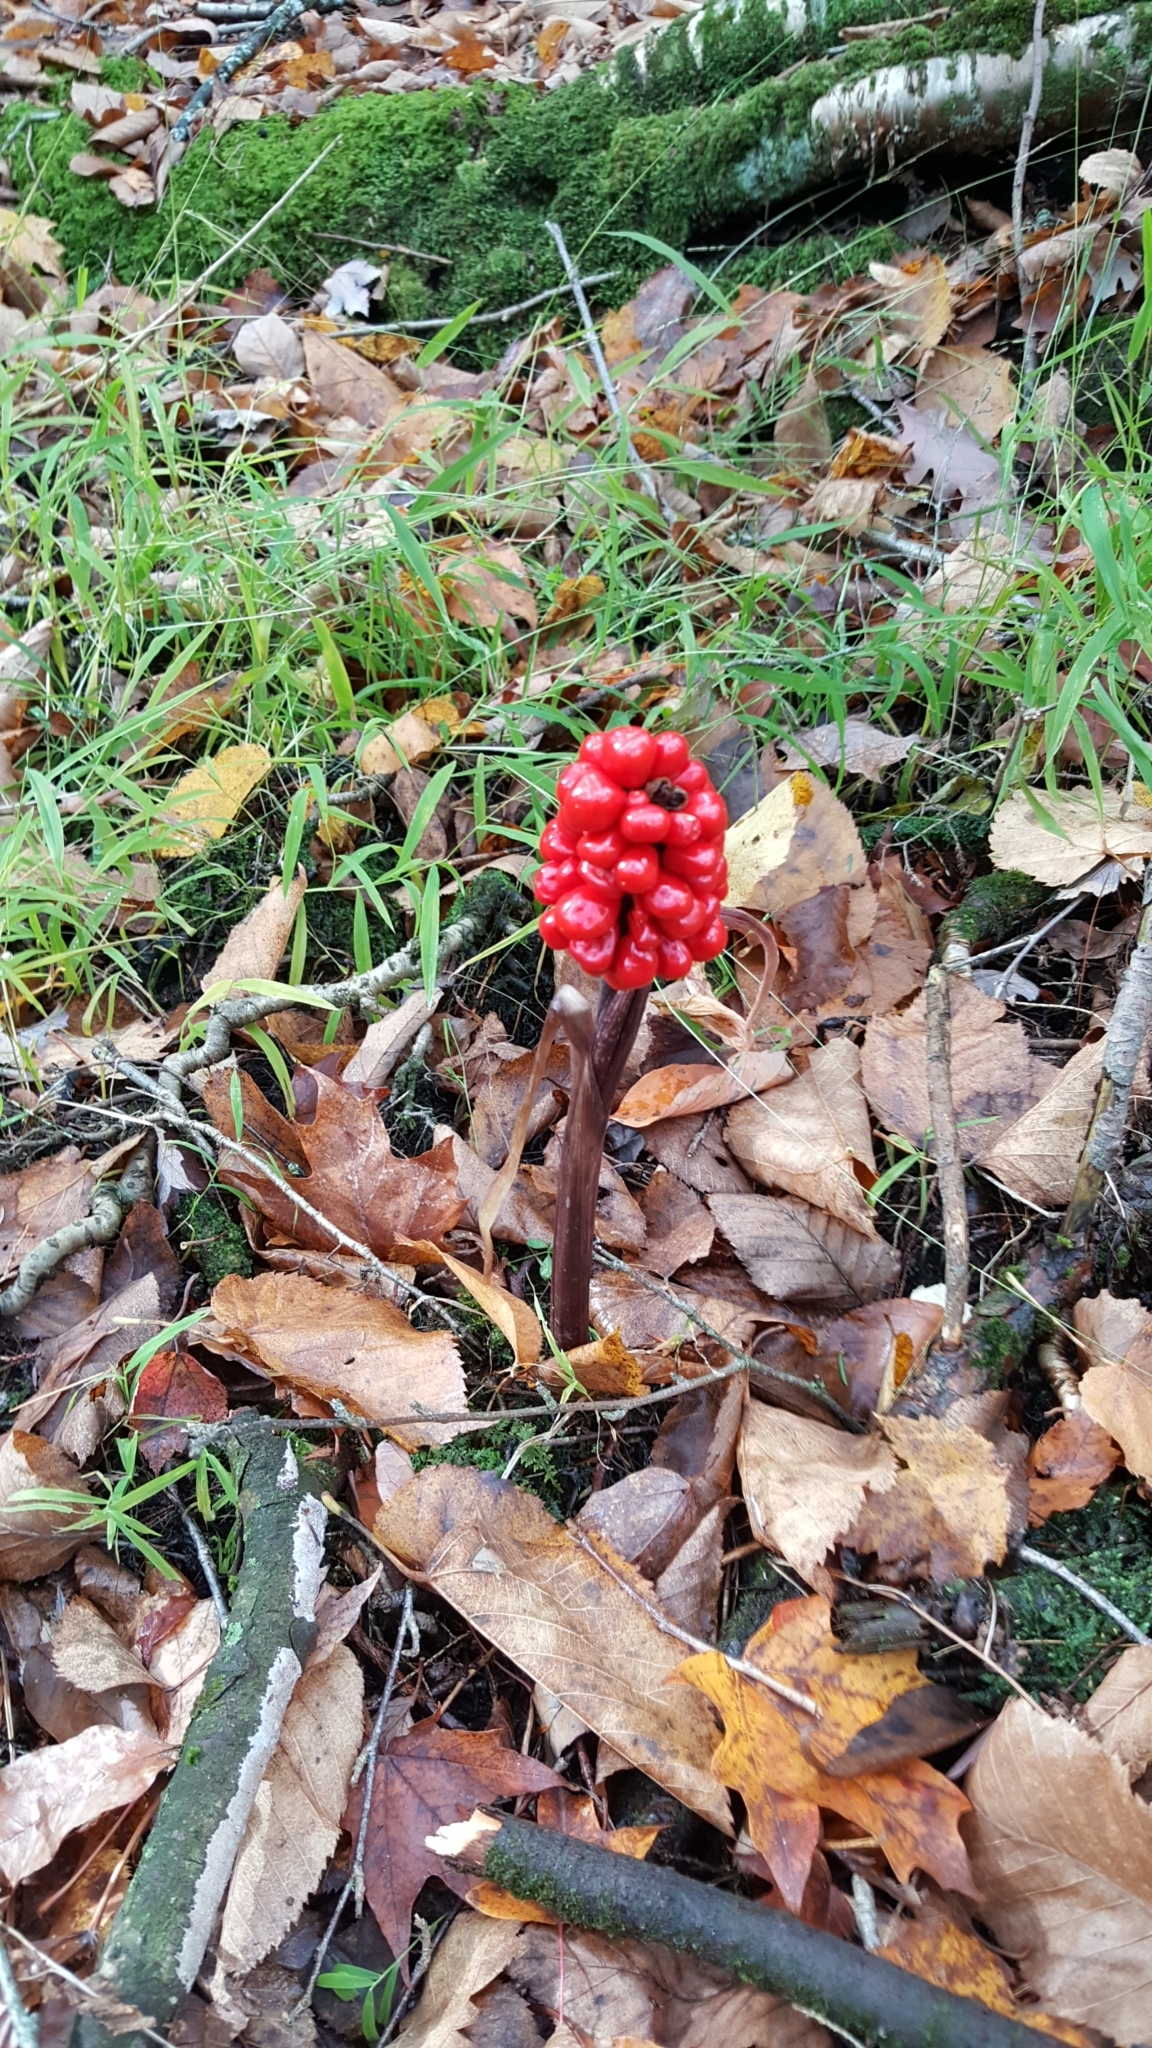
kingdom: Plantae
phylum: Tracheophyta
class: Liliopsida
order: Alismatales
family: Araceae
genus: Arisaema
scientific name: Arisaema triphyllum
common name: Jack-in-the-pulpit
